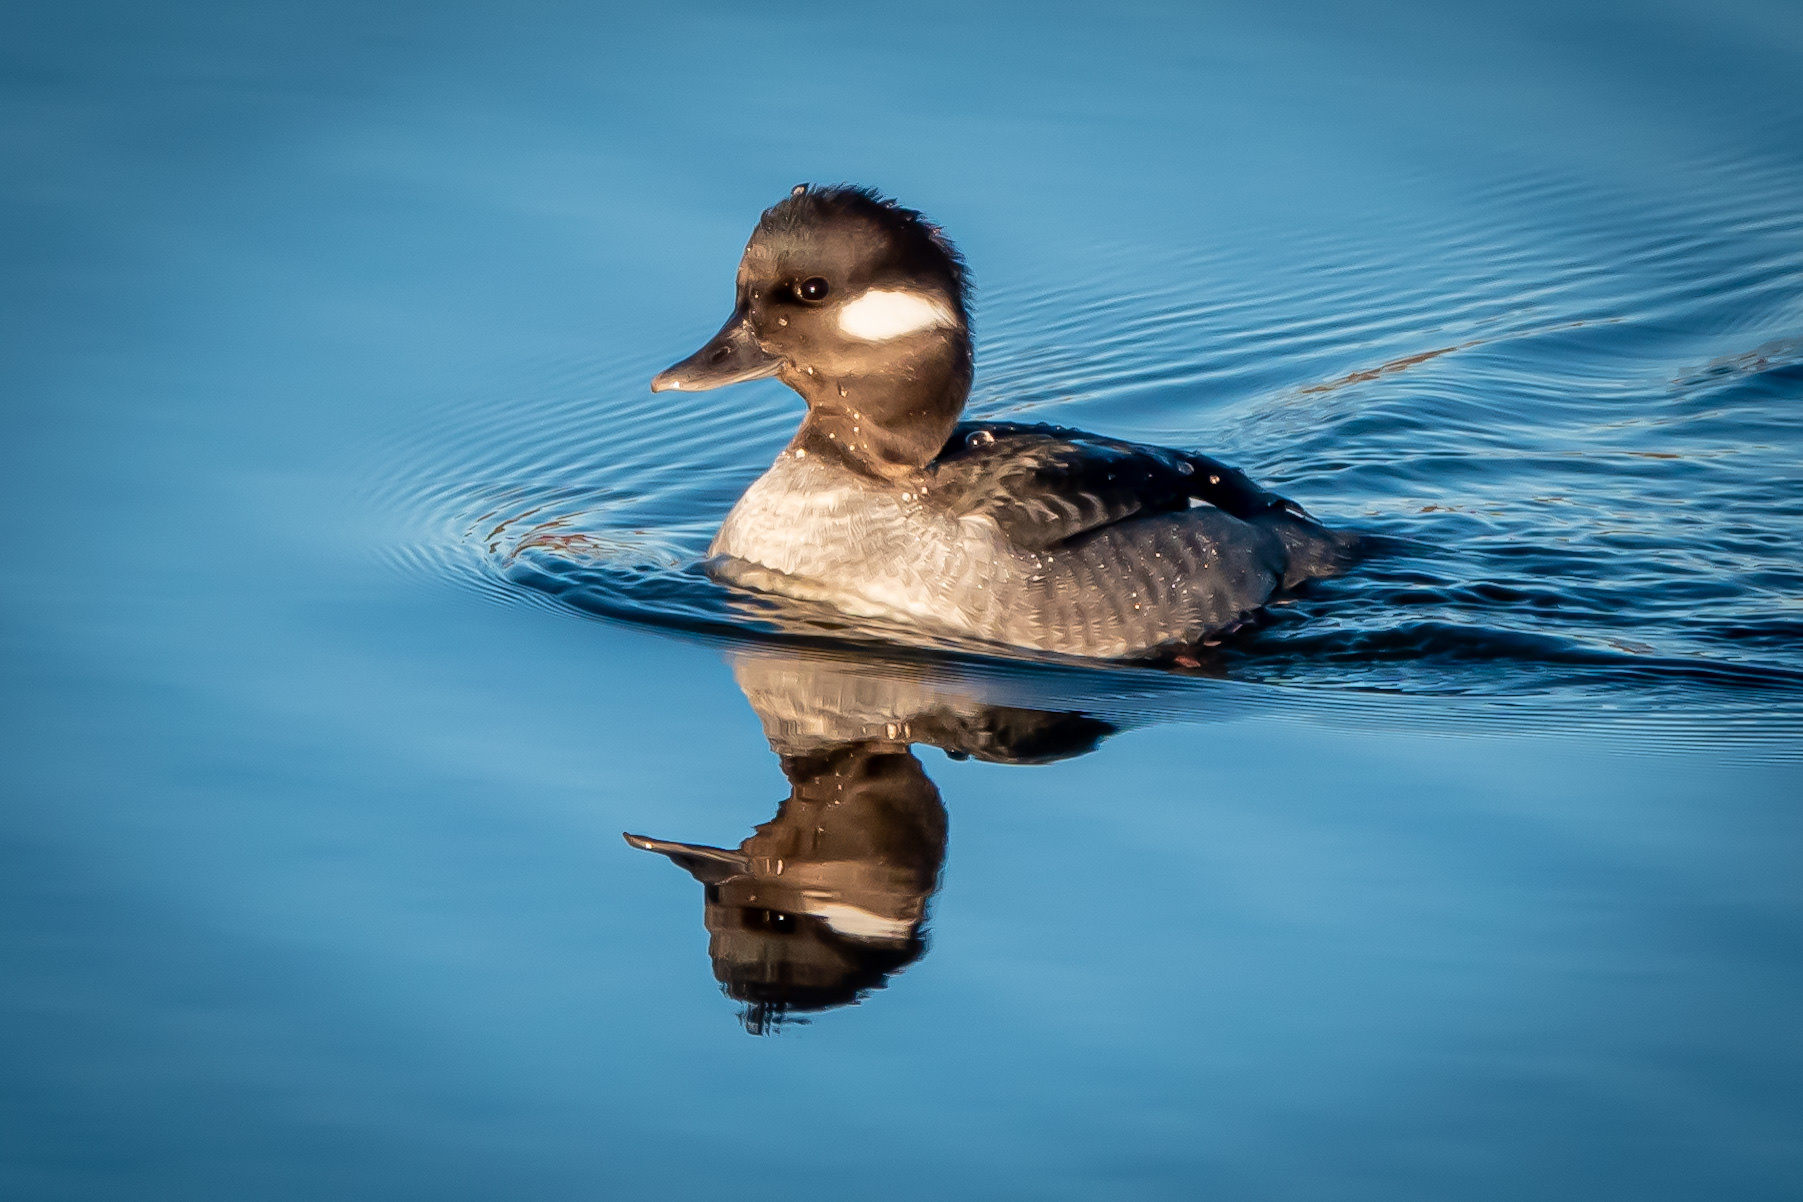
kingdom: Animalia
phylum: Chordata
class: Aves
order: Anseriformes
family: Anatidae
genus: Bucephala
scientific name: Bucephala albeola
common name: Bufflehead
